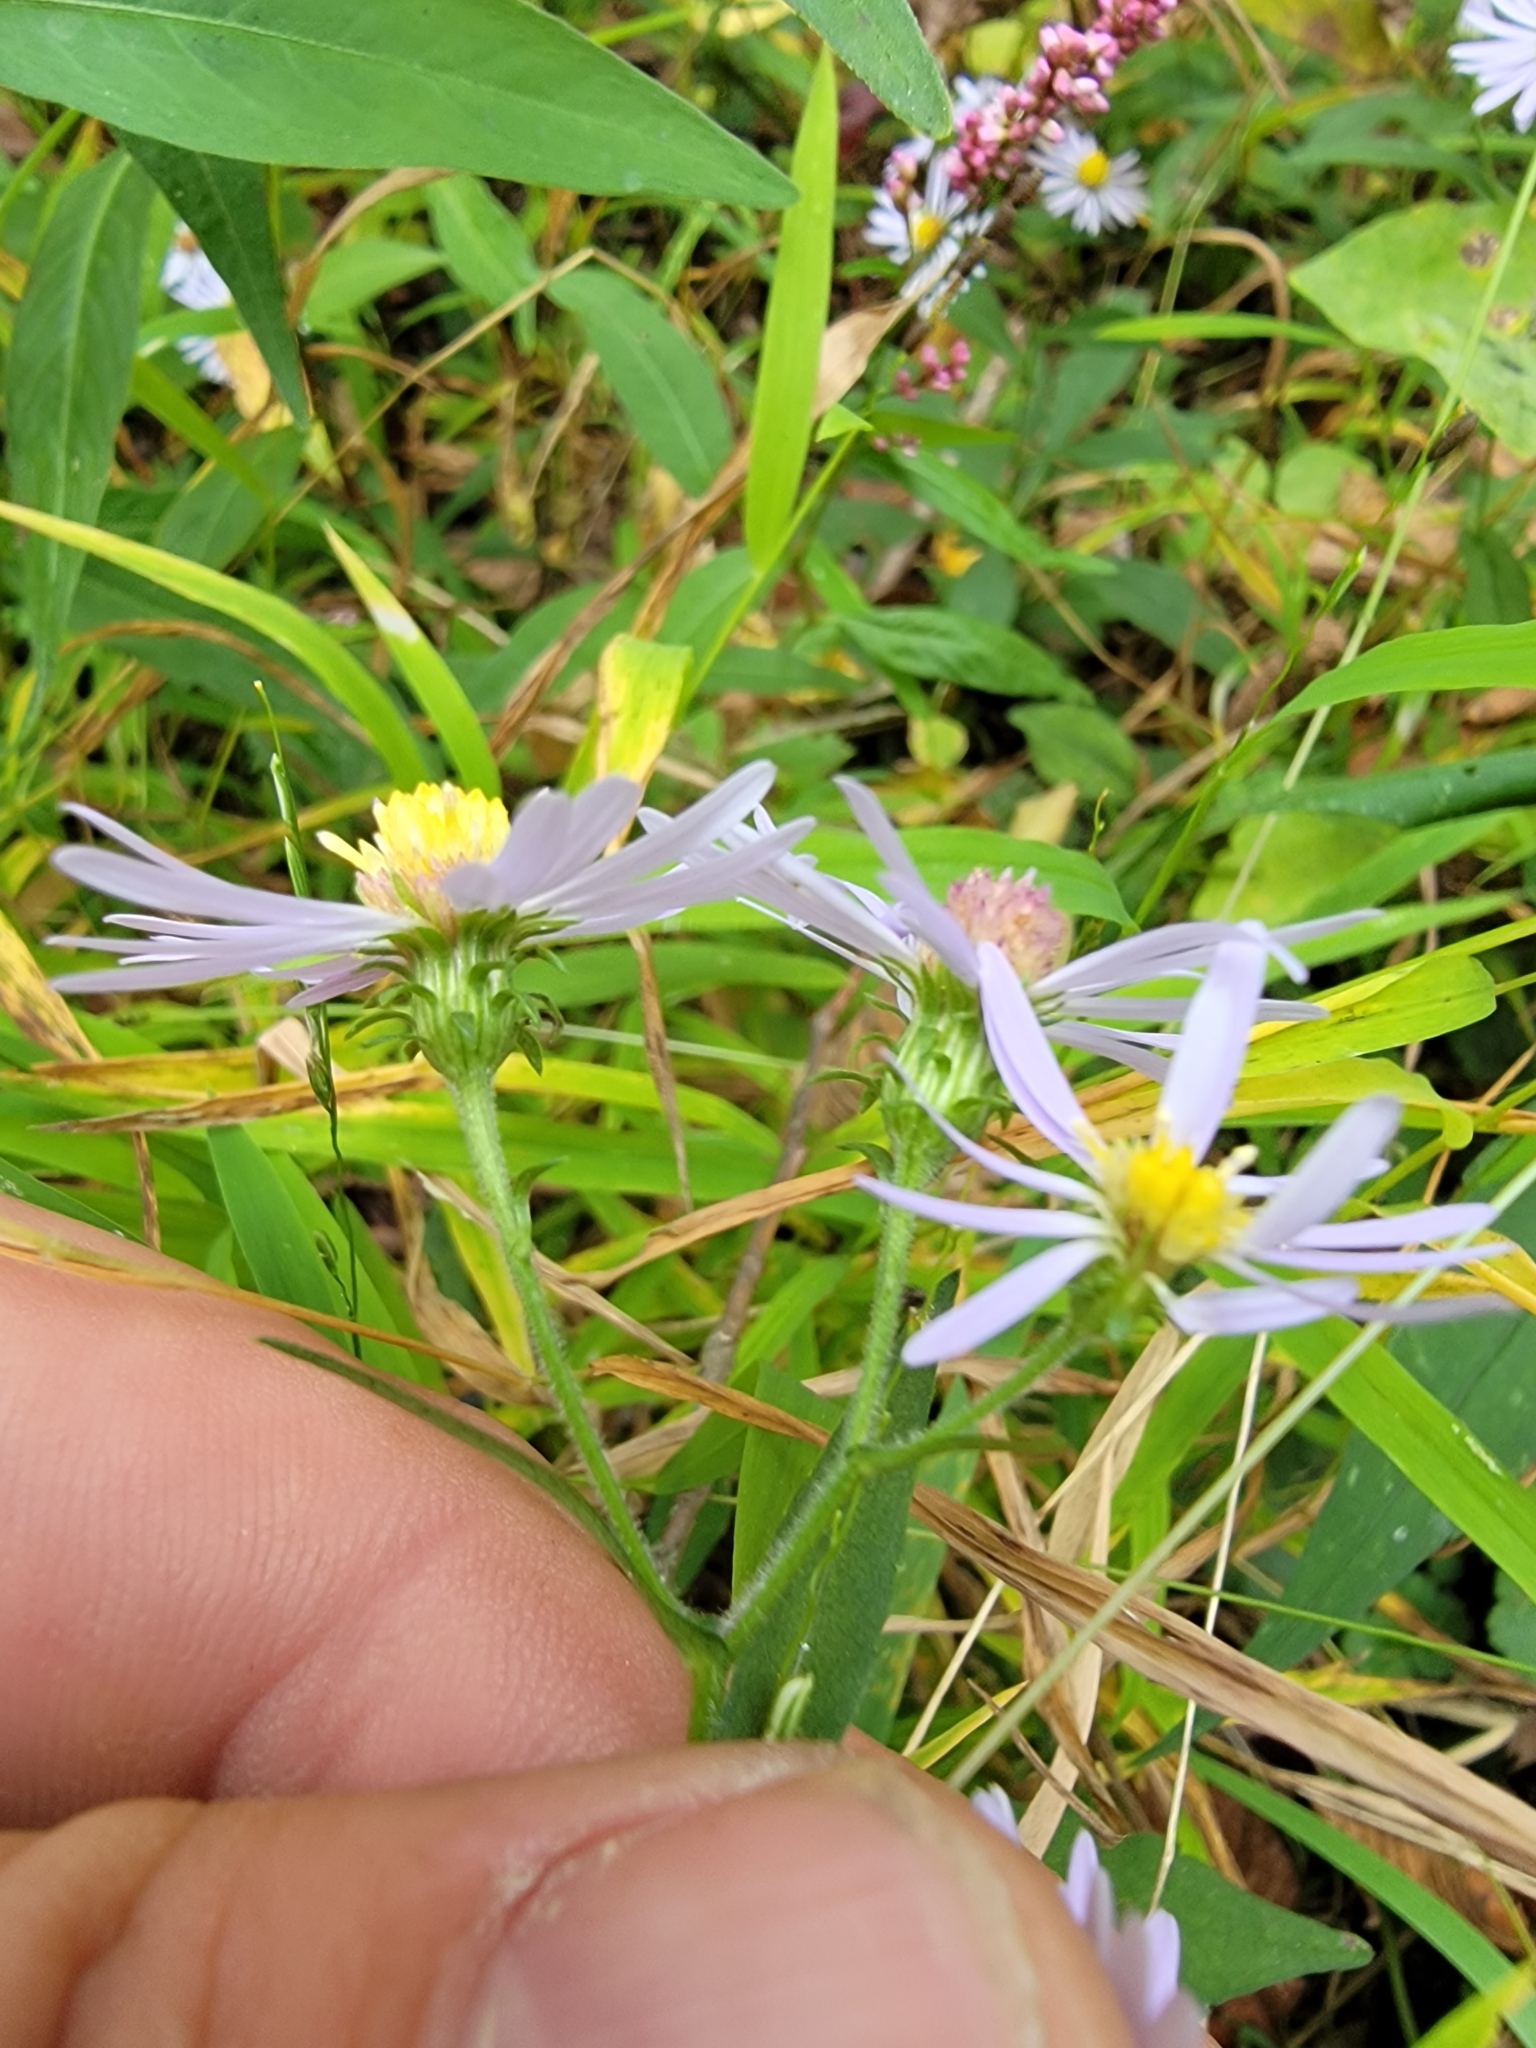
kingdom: Plantae
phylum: Tracheophyta
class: Magnoliopsida
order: Asterales
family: Asteraceae
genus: Symphyotrichum
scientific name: Symphyotrichum prenanthoides
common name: Crooked-stem aster
